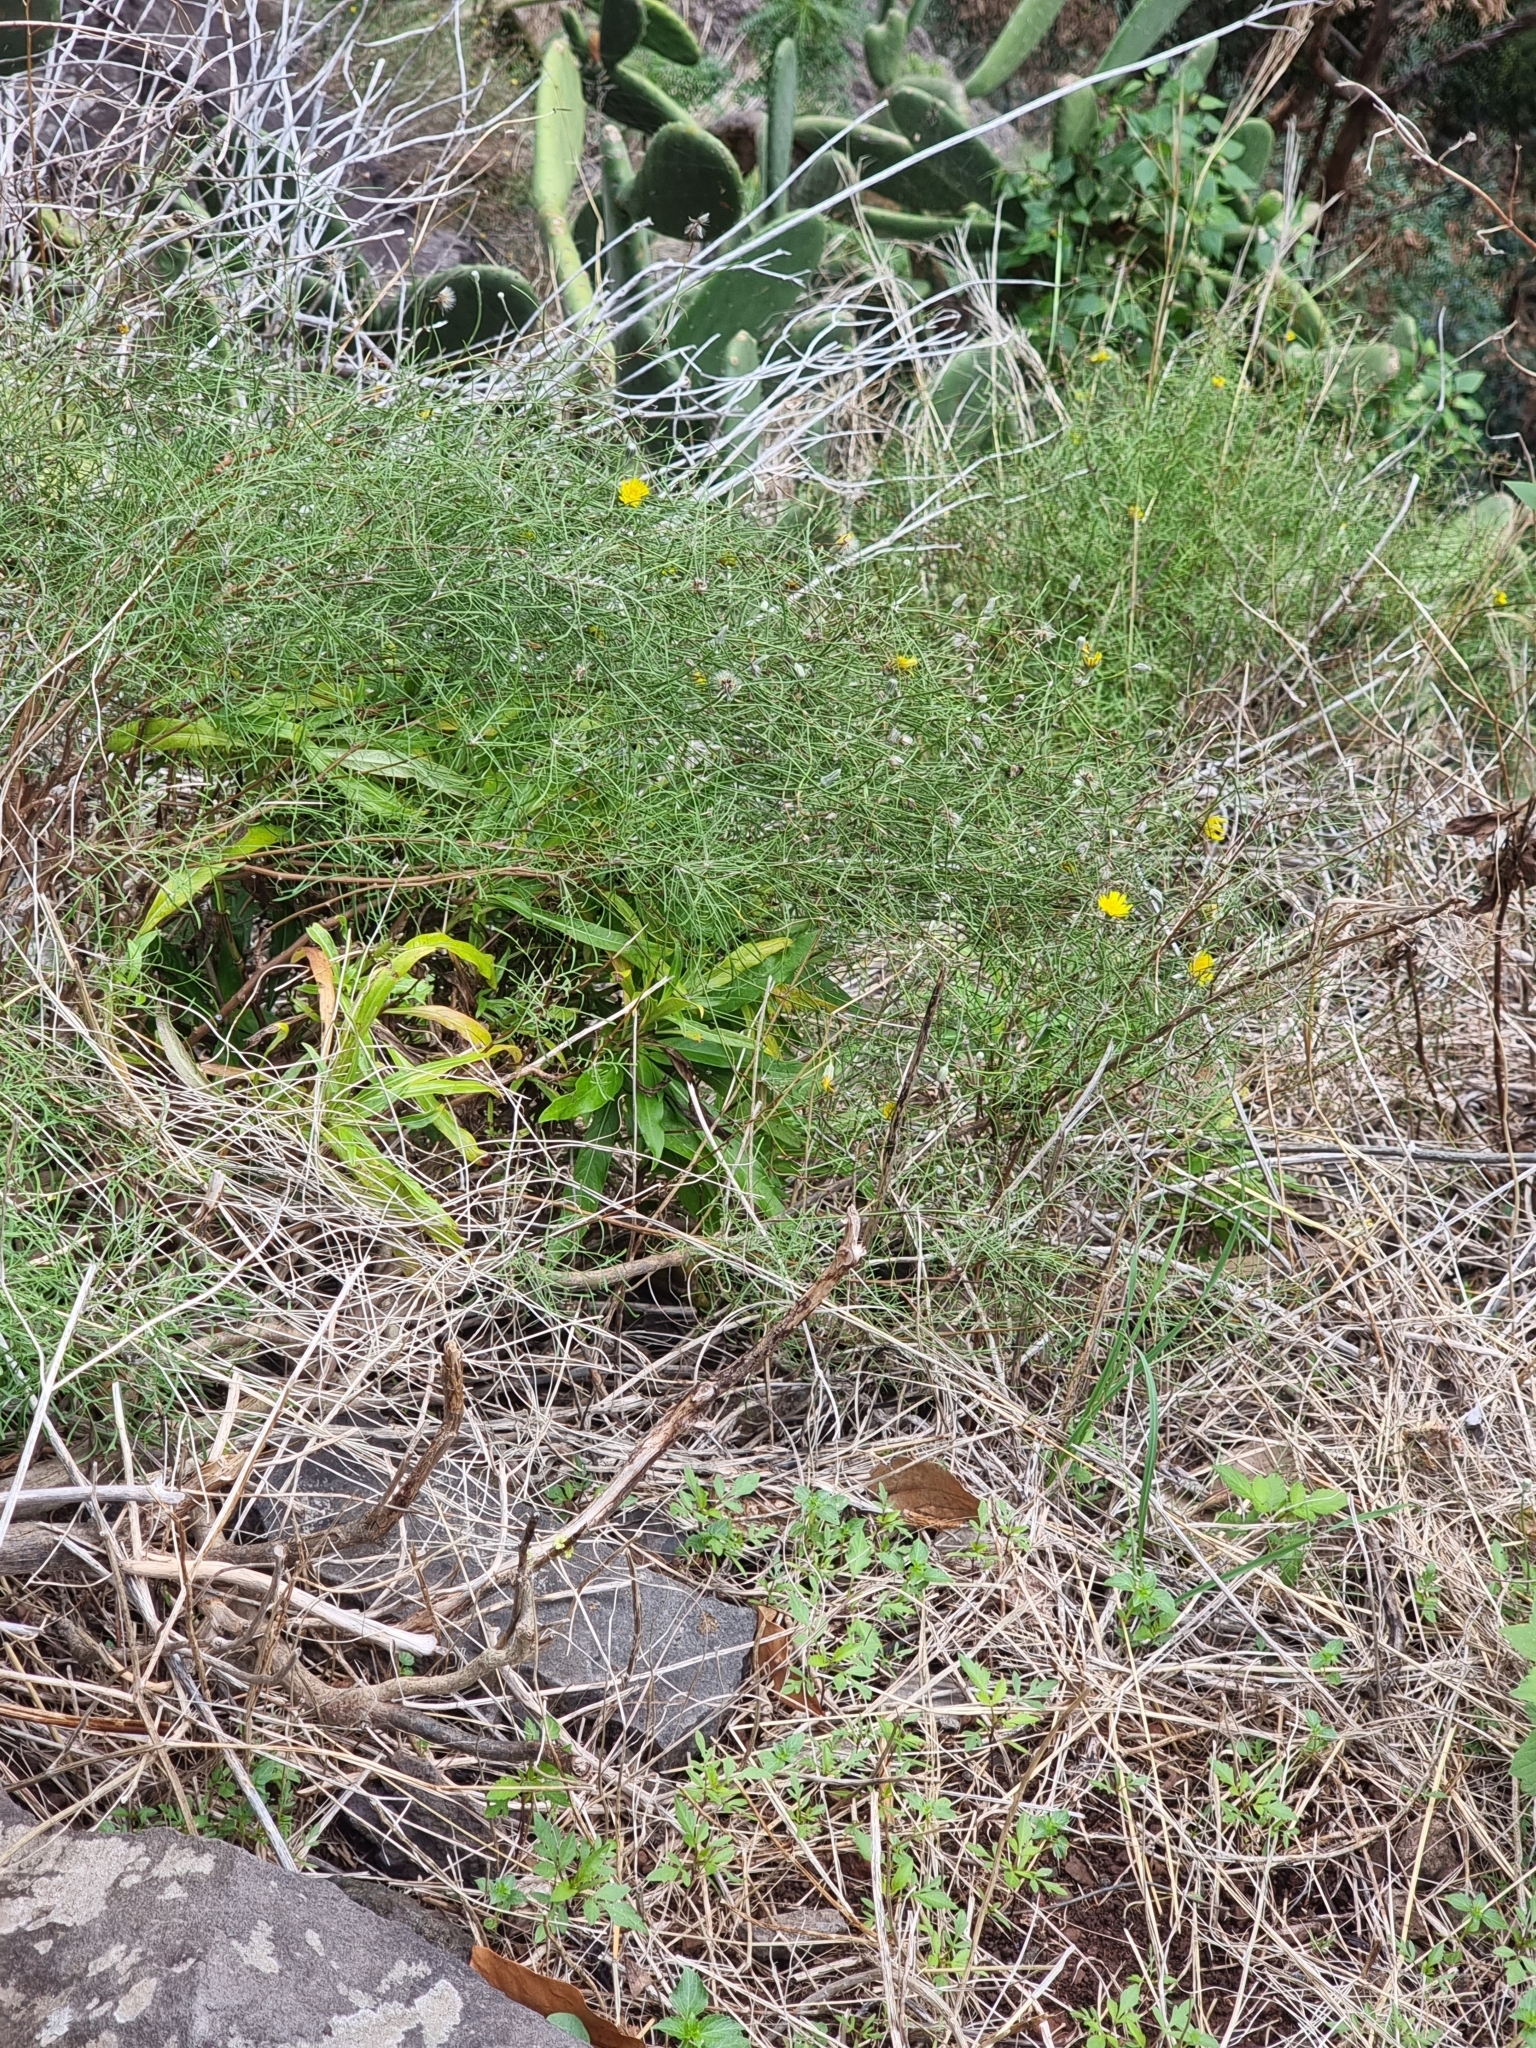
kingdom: Plantae
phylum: Tracheophyta
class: Magnoliopsida
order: Asterales
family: Asteraceae
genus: Tolpis
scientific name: Tolpis succulenta
